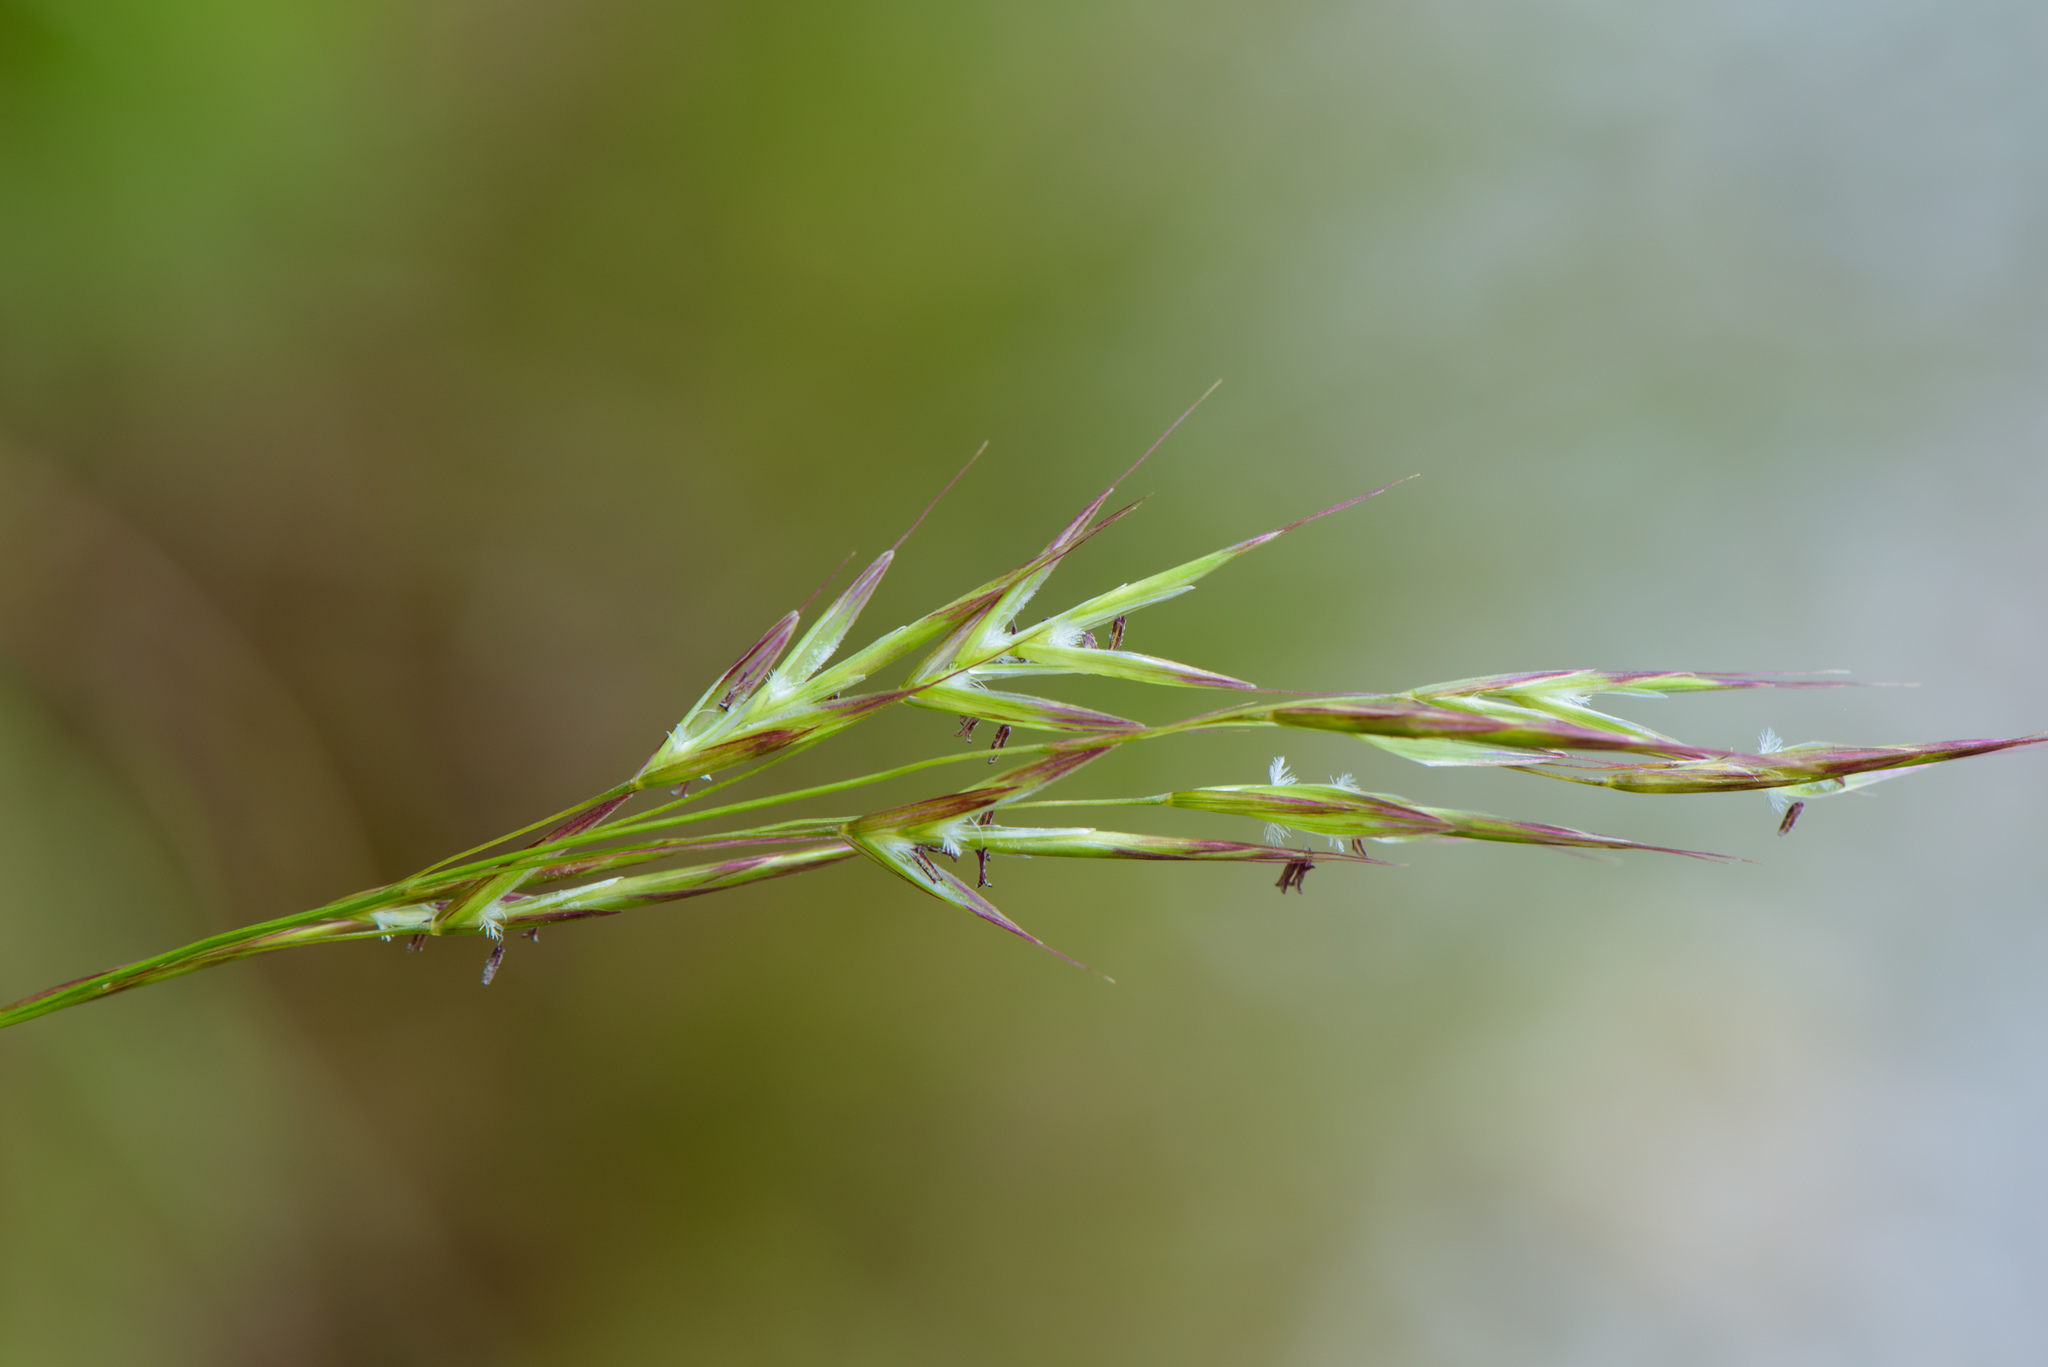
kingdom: Plantae
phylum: Tracheophyta
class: Liliopsida
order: Poales
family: Poaceae
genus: Brachypodium
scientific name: Brachypodium sylvaticum
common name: False-brome
